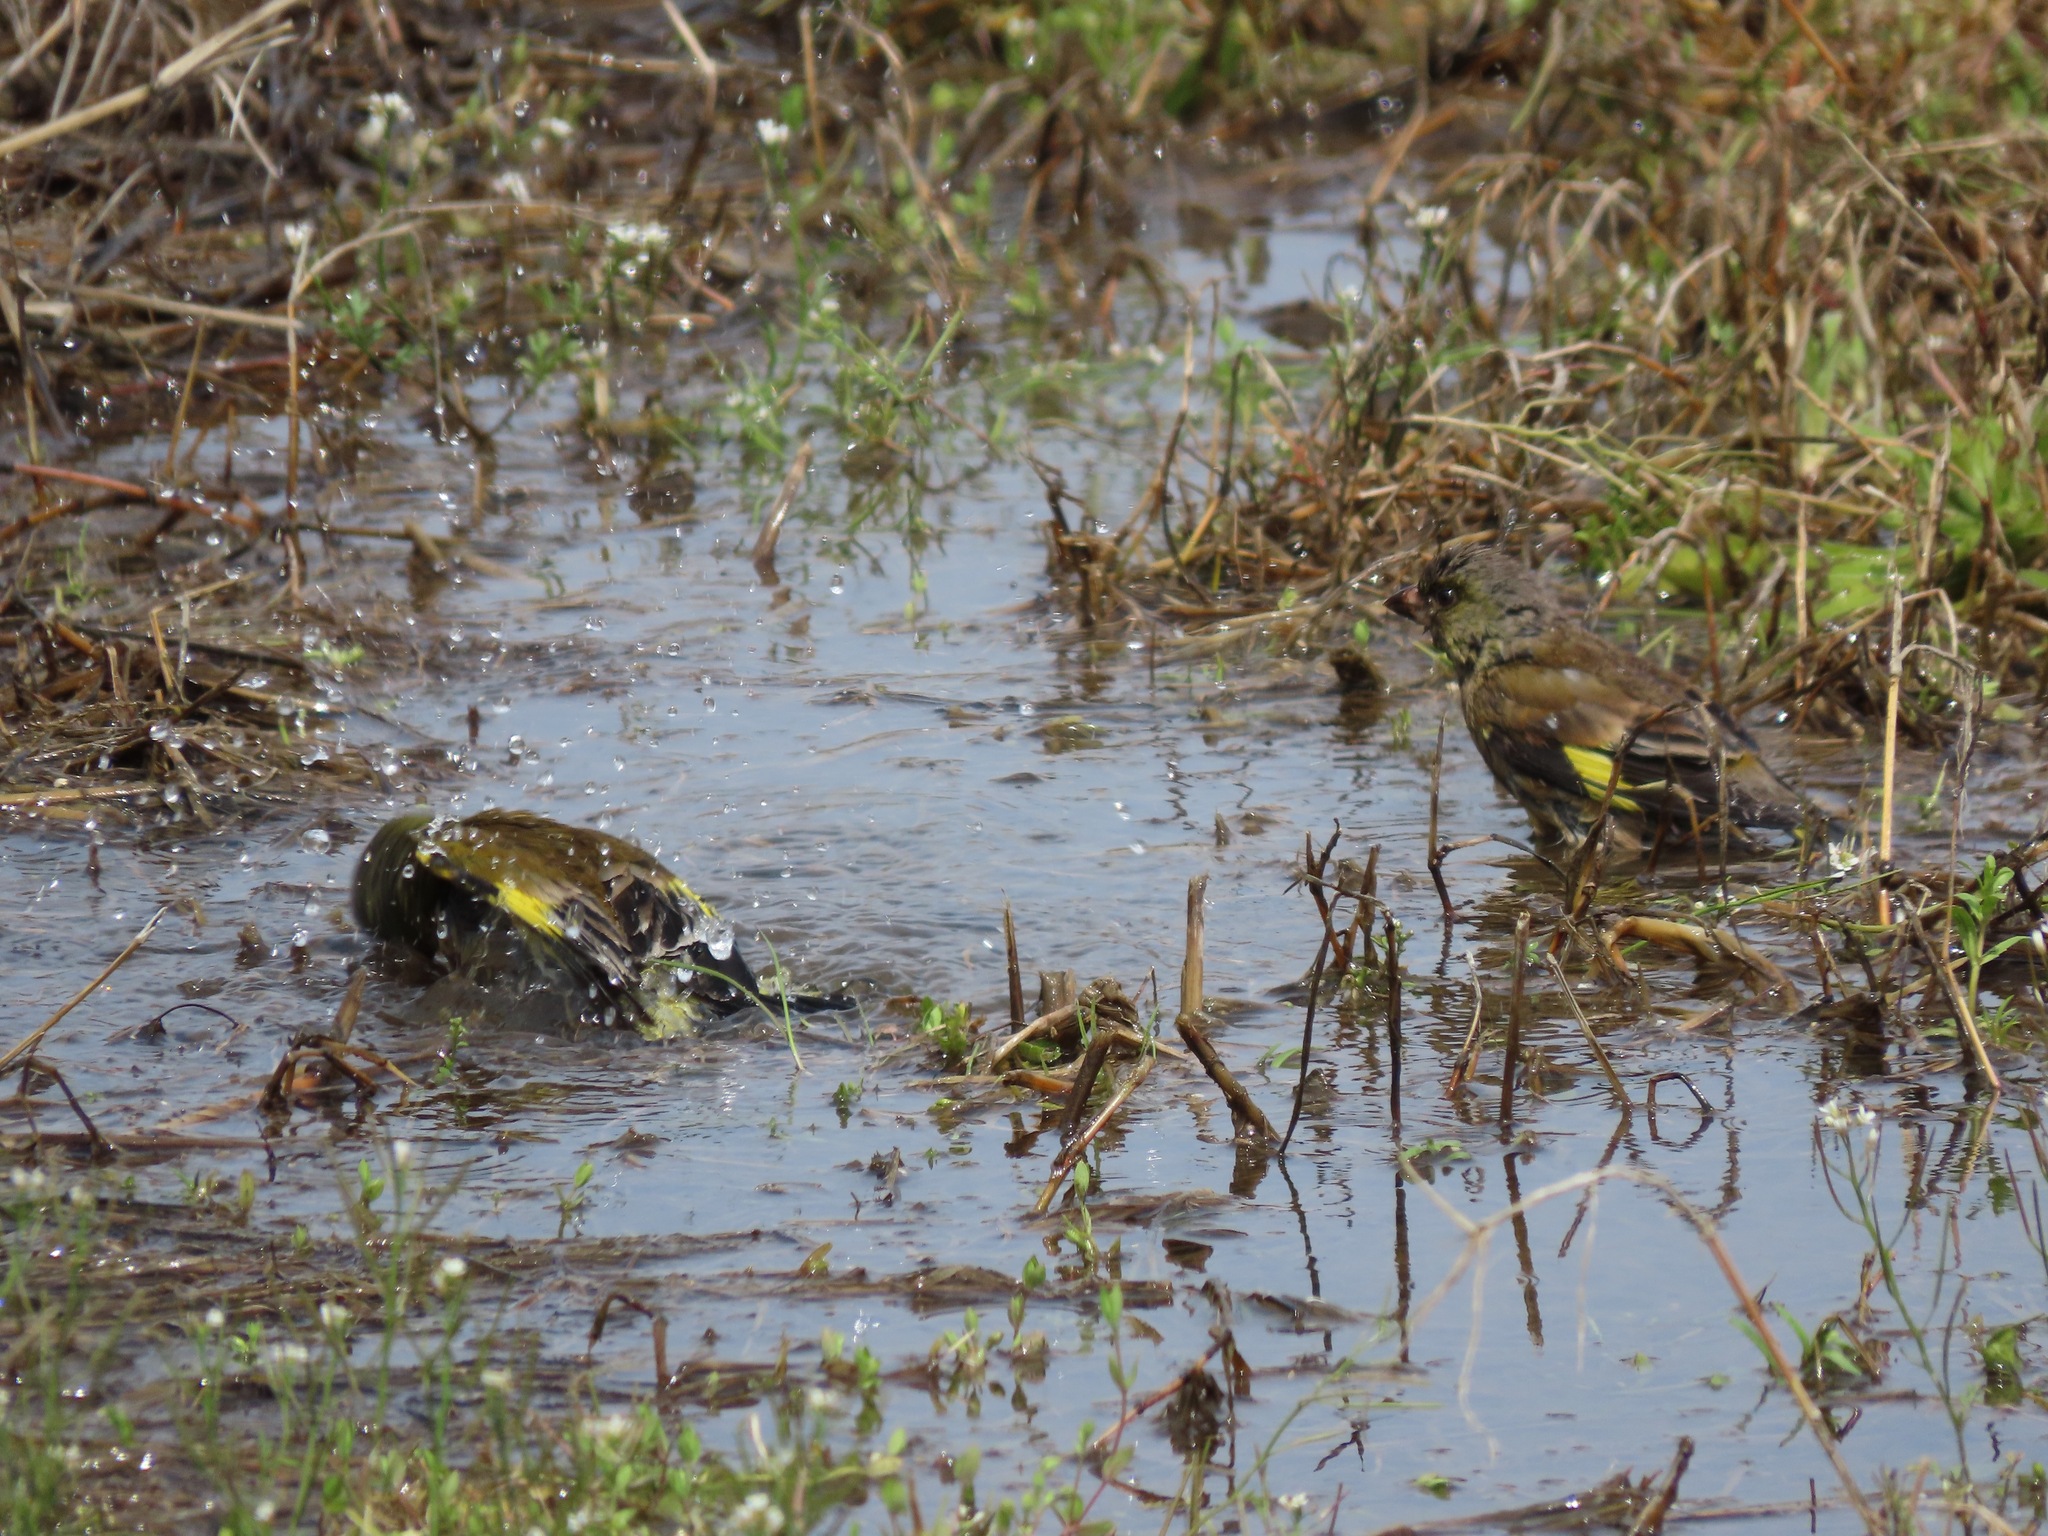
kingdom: Plantae
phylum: Tracheophyta
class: Liliopsida
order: Poales
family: Poaceae
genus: Chloris
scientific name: Chloris sinica
